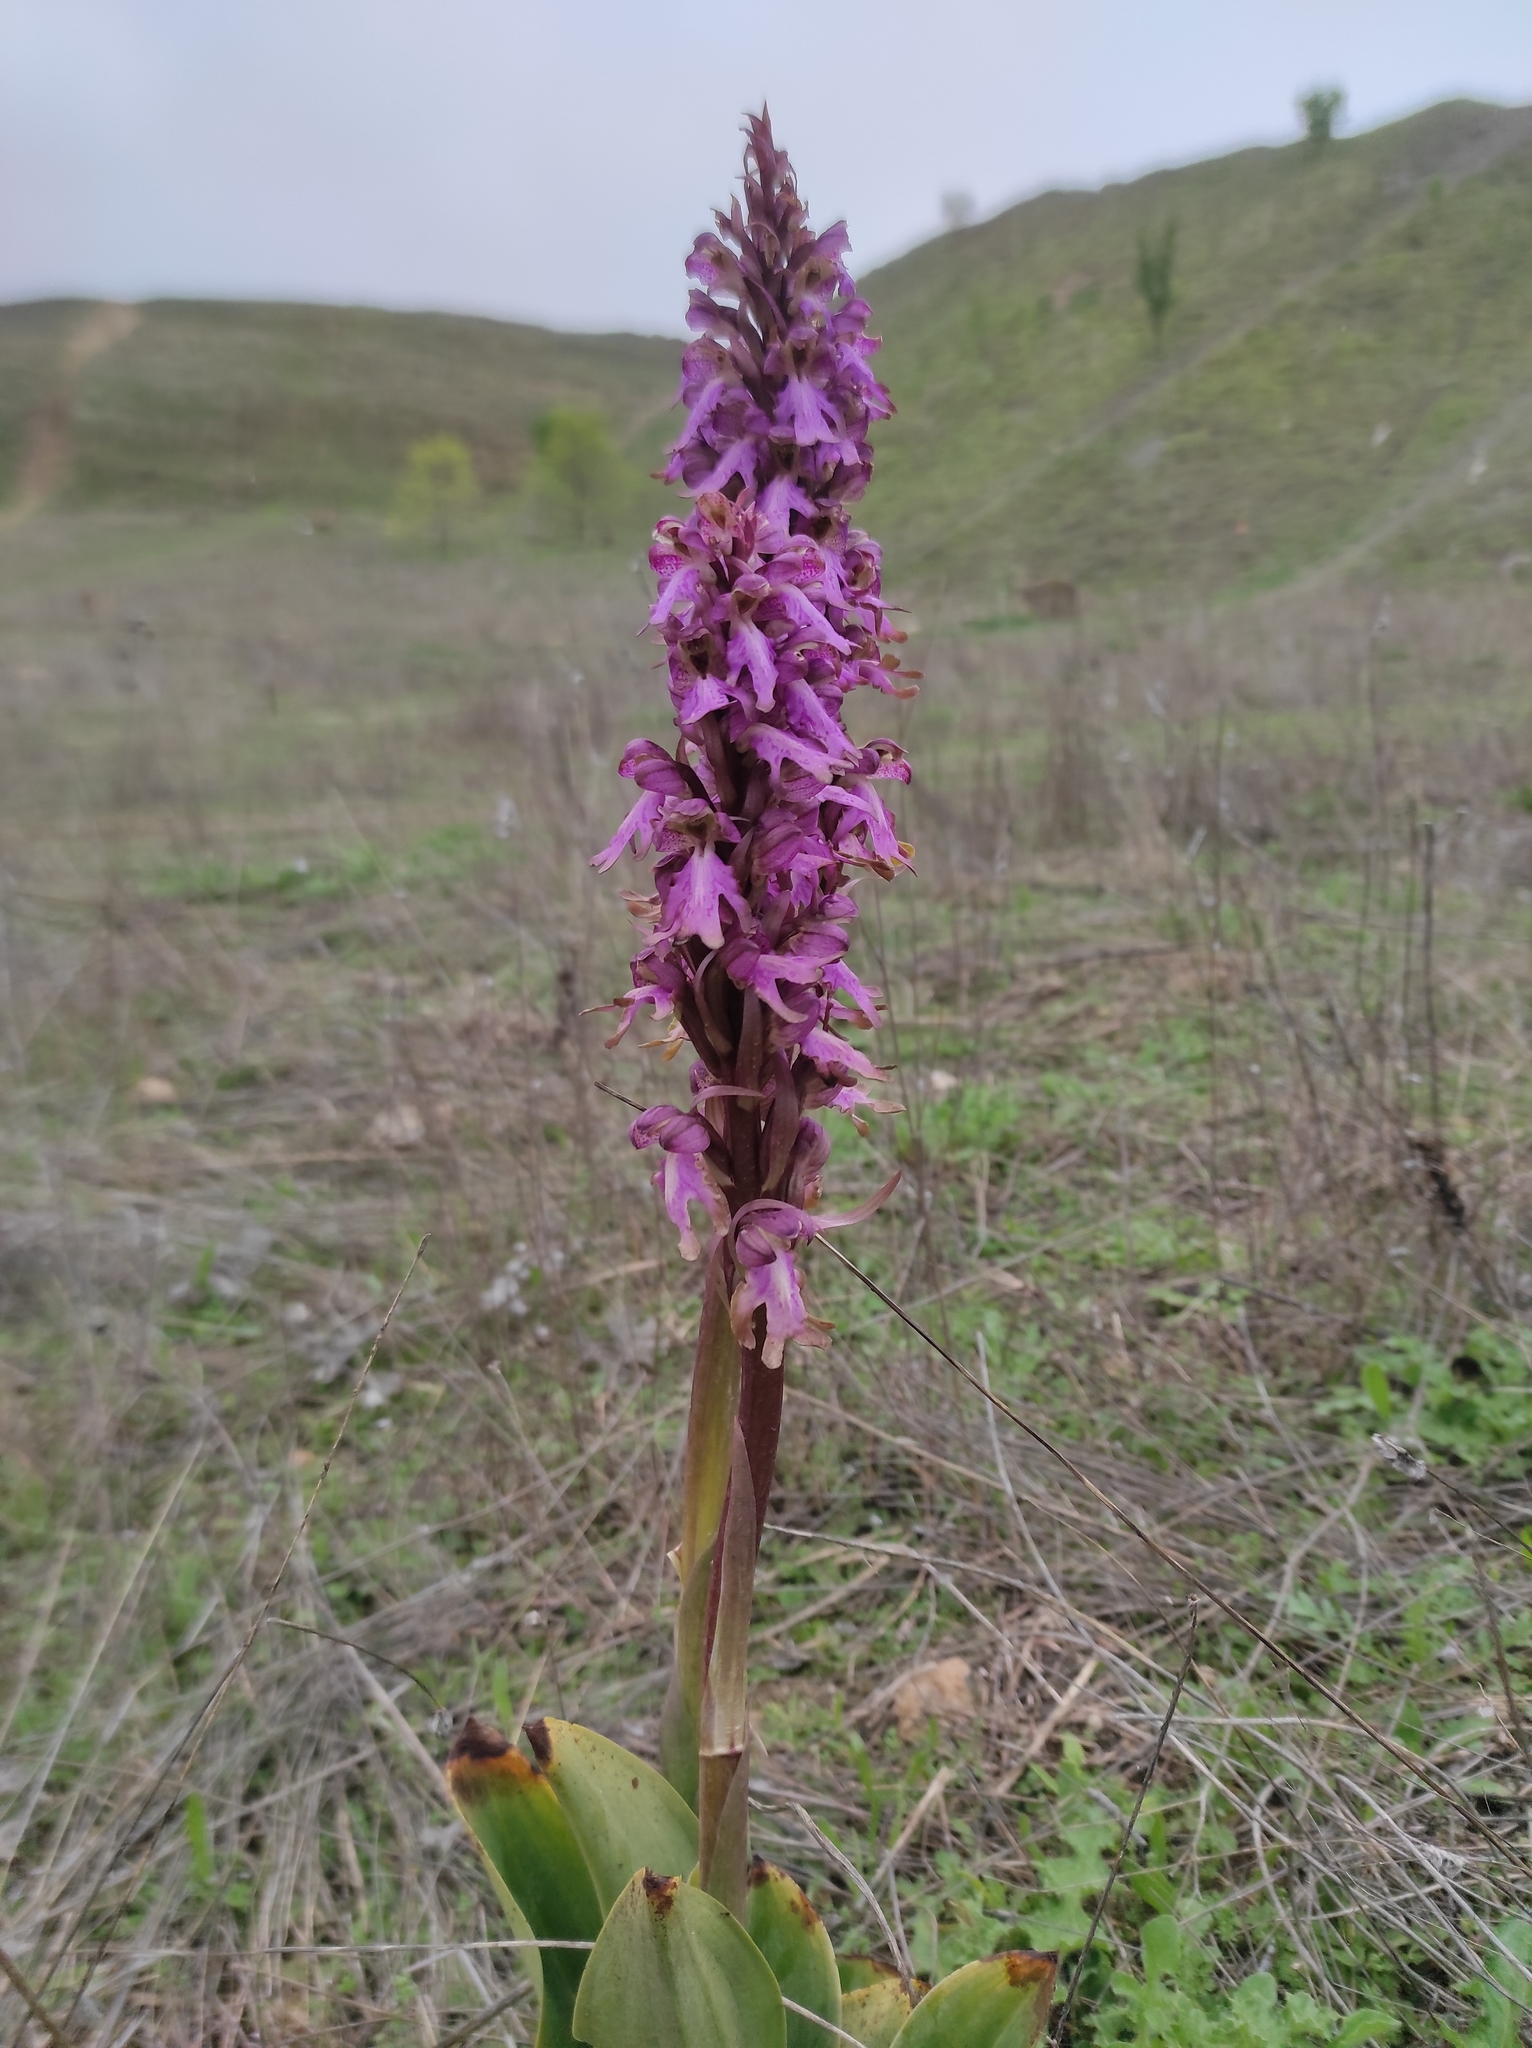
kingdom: Plantae
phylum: Tracheophyta
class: Liliopsida
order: Asparagales
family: Orchidaceae
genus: Himantoglossum
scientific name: Himantoglossum robertianum
